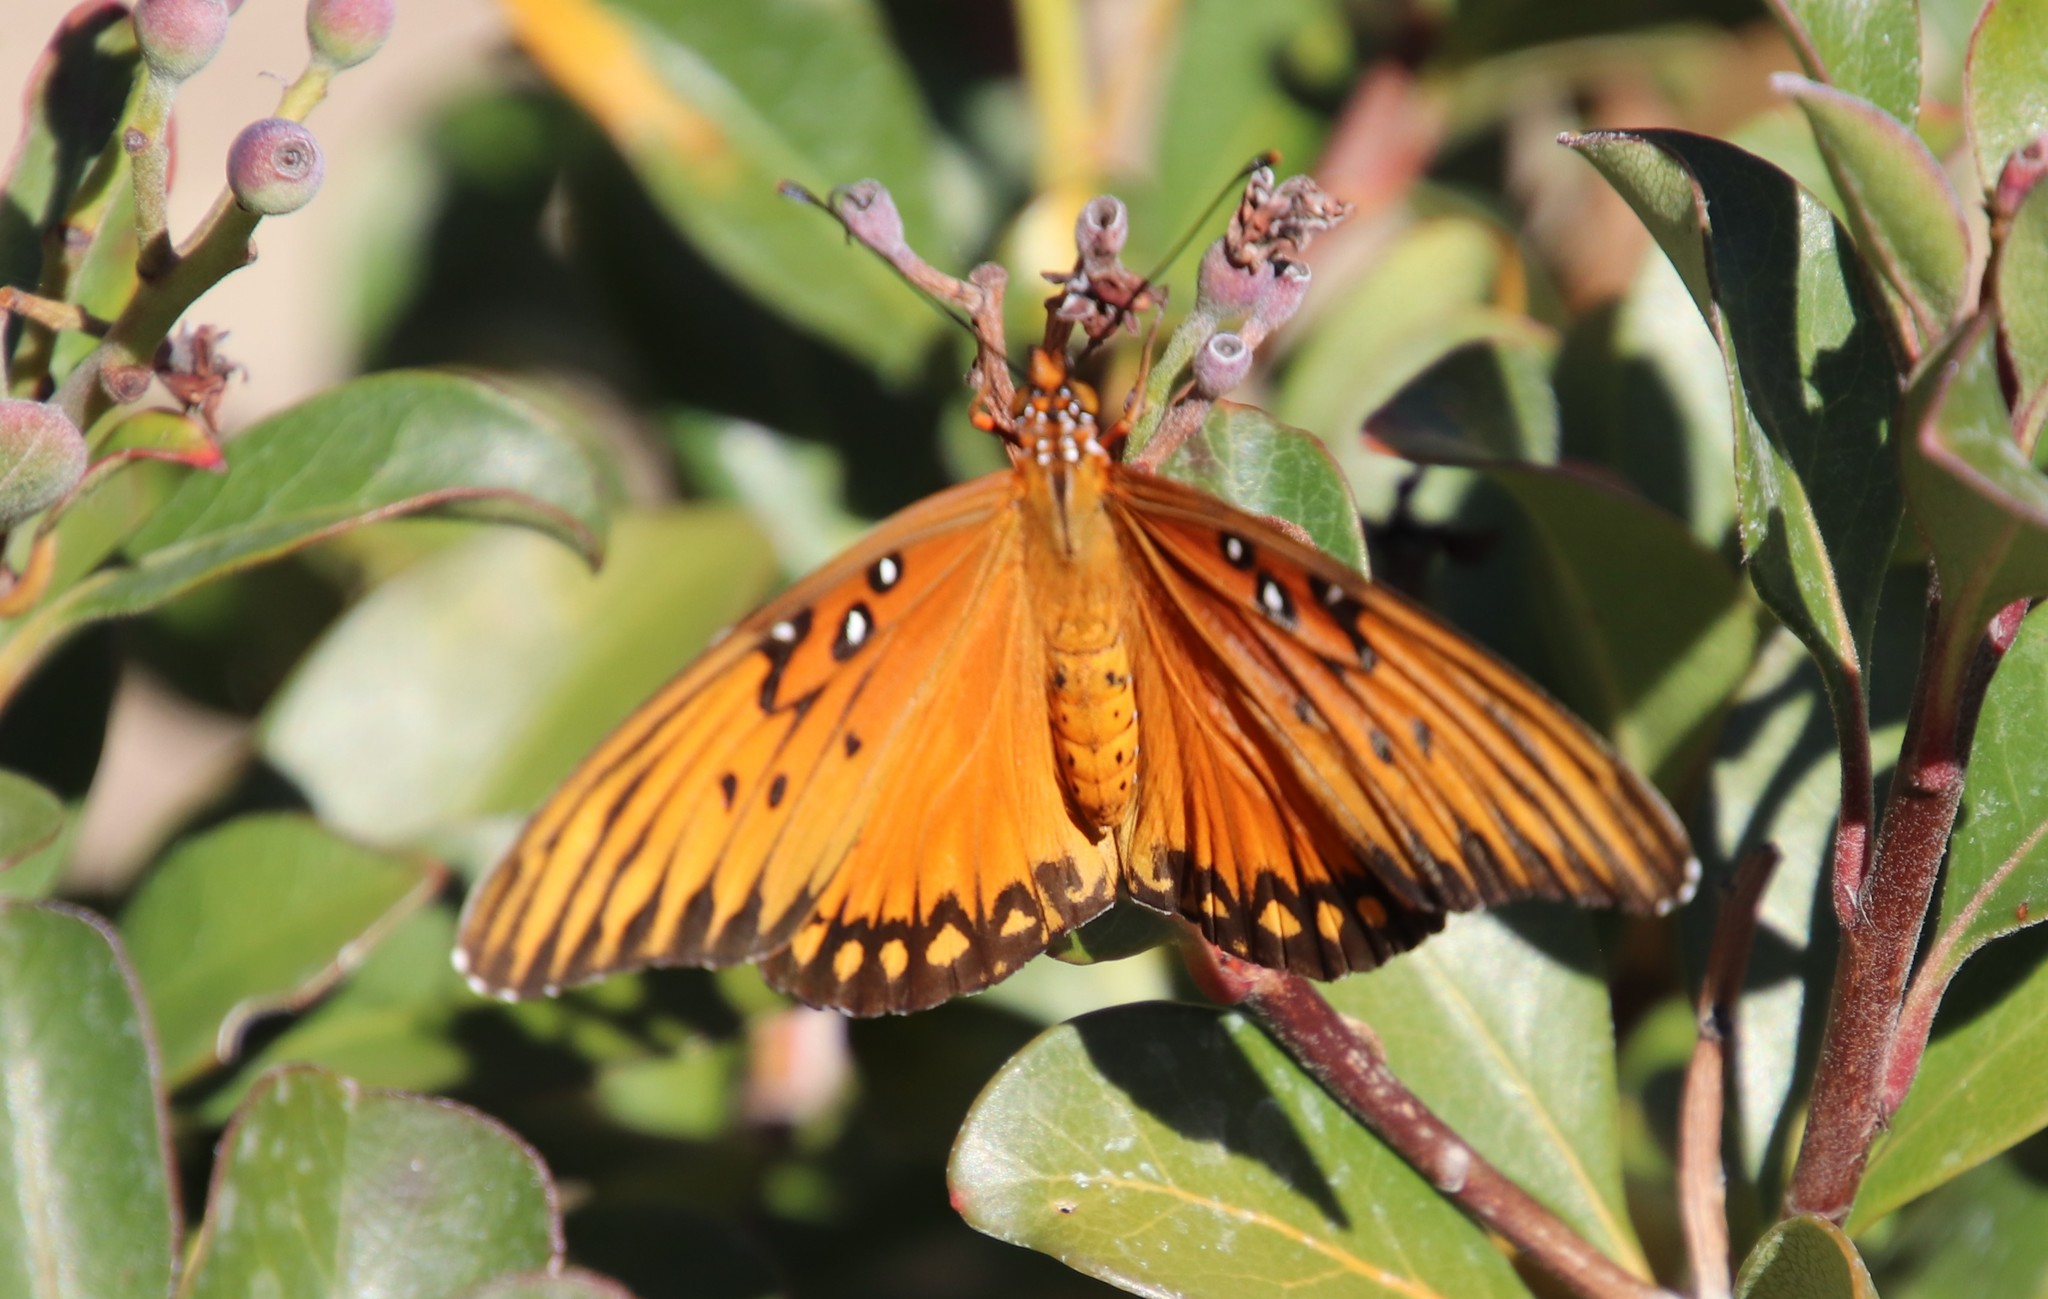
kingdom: Animalia
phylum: Arthropoda
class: Insecta
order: Lepidoptera
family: Nymphalidae
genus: Dione
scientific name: Dione vanillae
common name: Gulf fritillary
